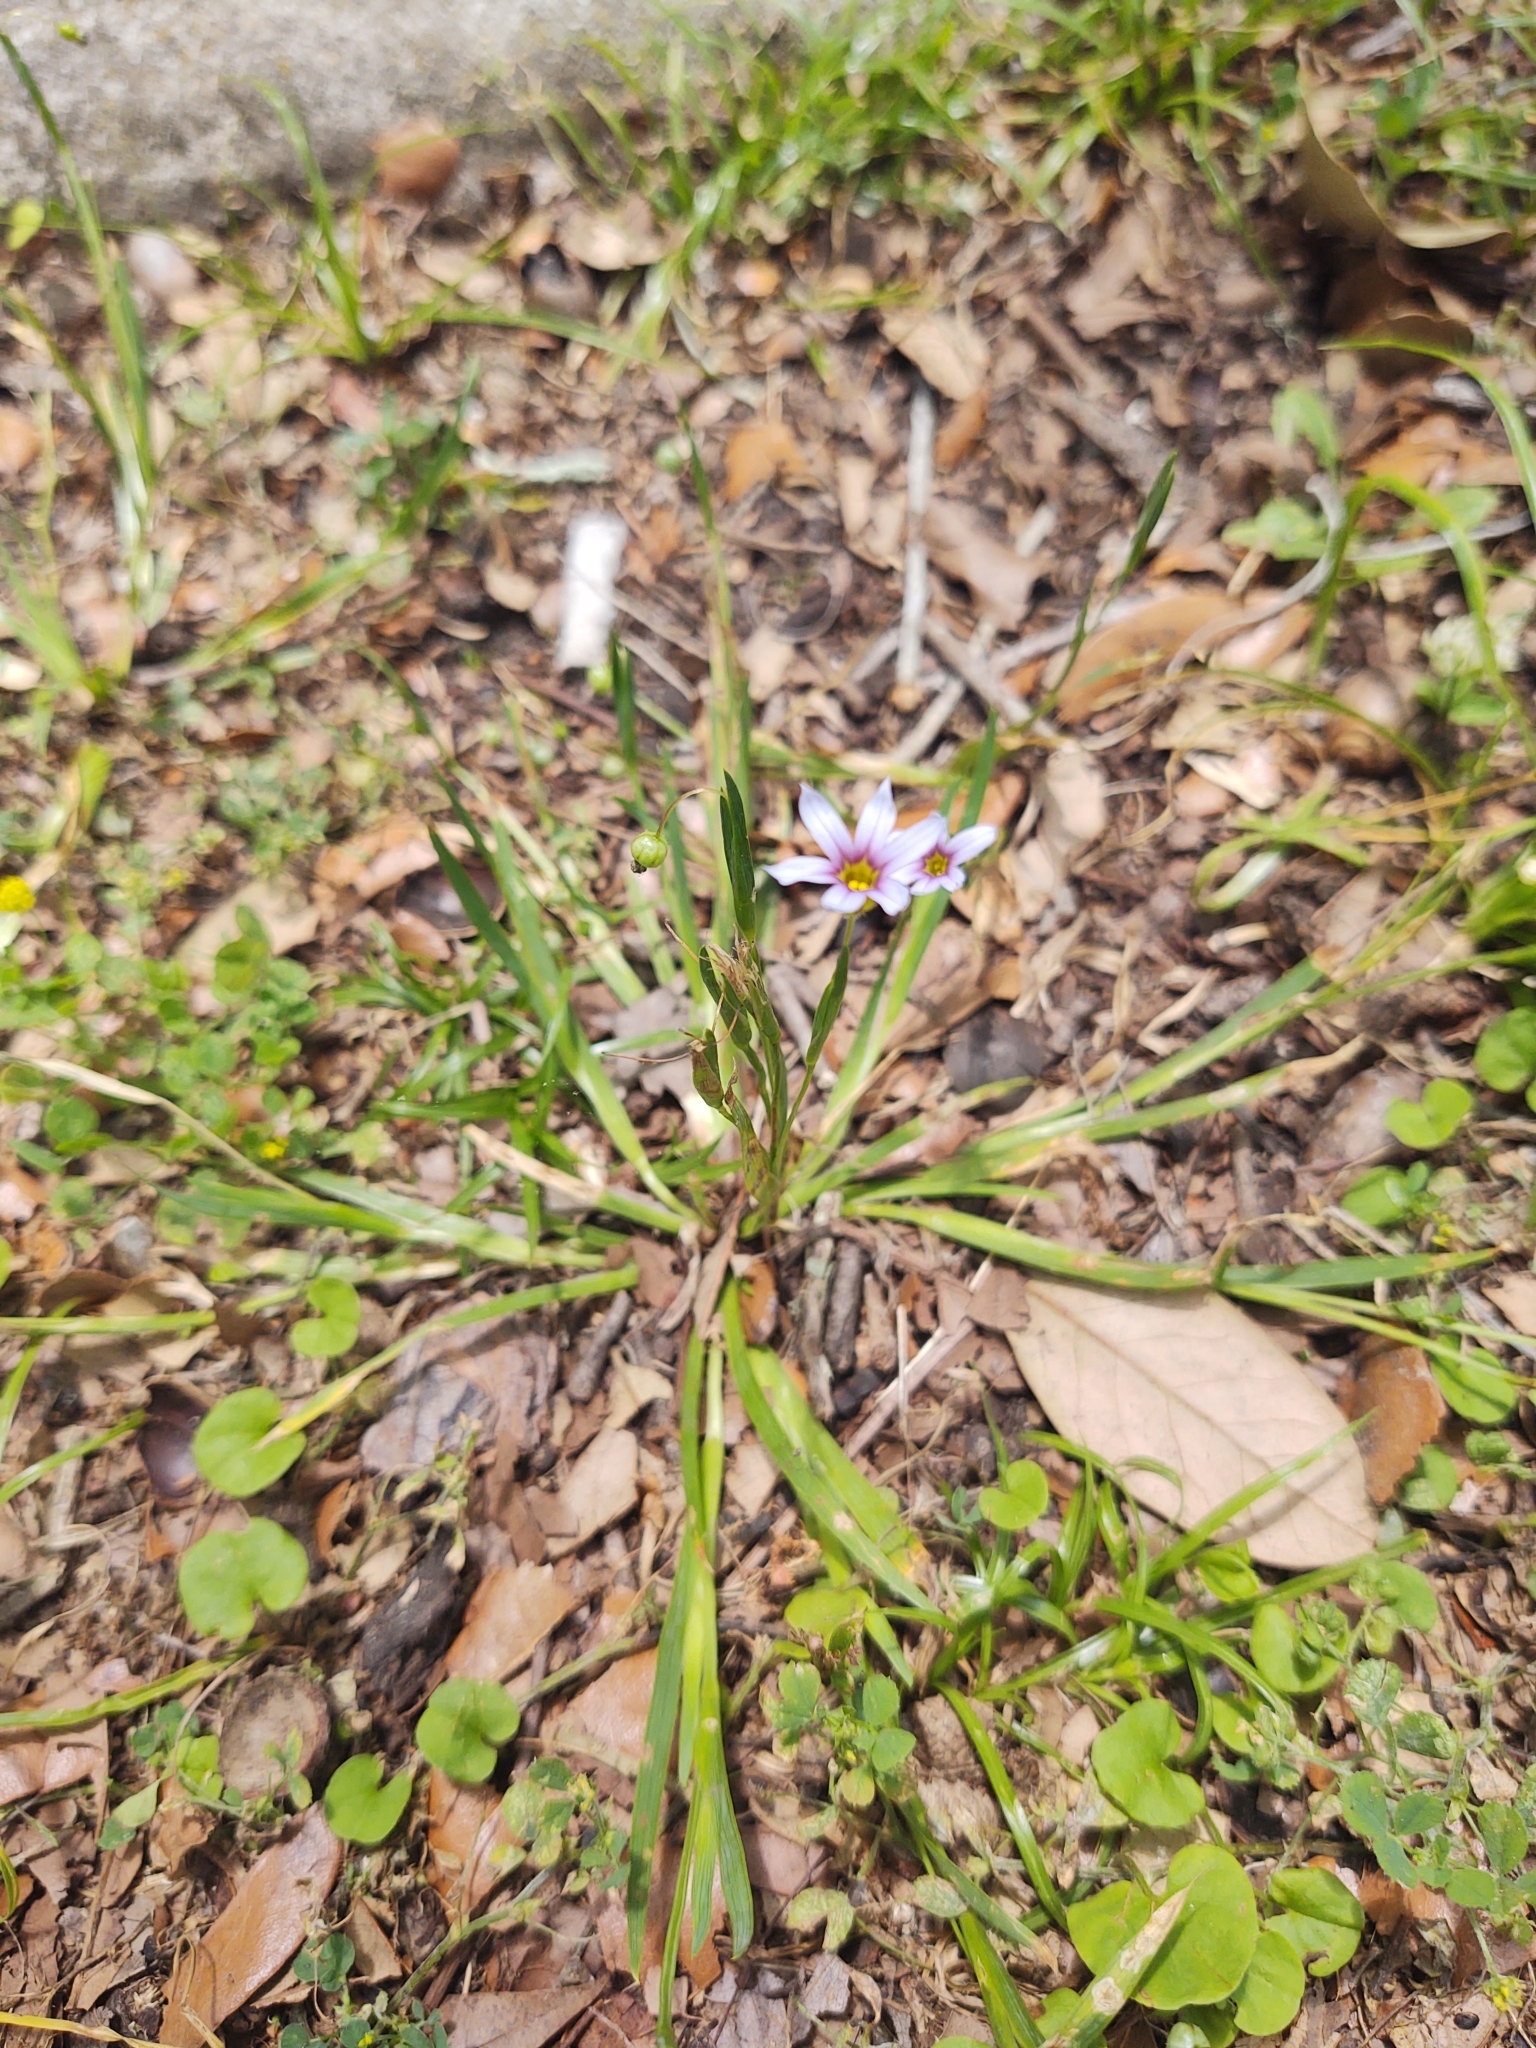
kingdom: Plantae
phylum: Tracheophyta
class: Liliopsida
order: Asparagales
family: Iridaceae
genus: Sisyrinchium
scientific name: Sisyrinchium micranthum
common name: Bermuda pigroot
